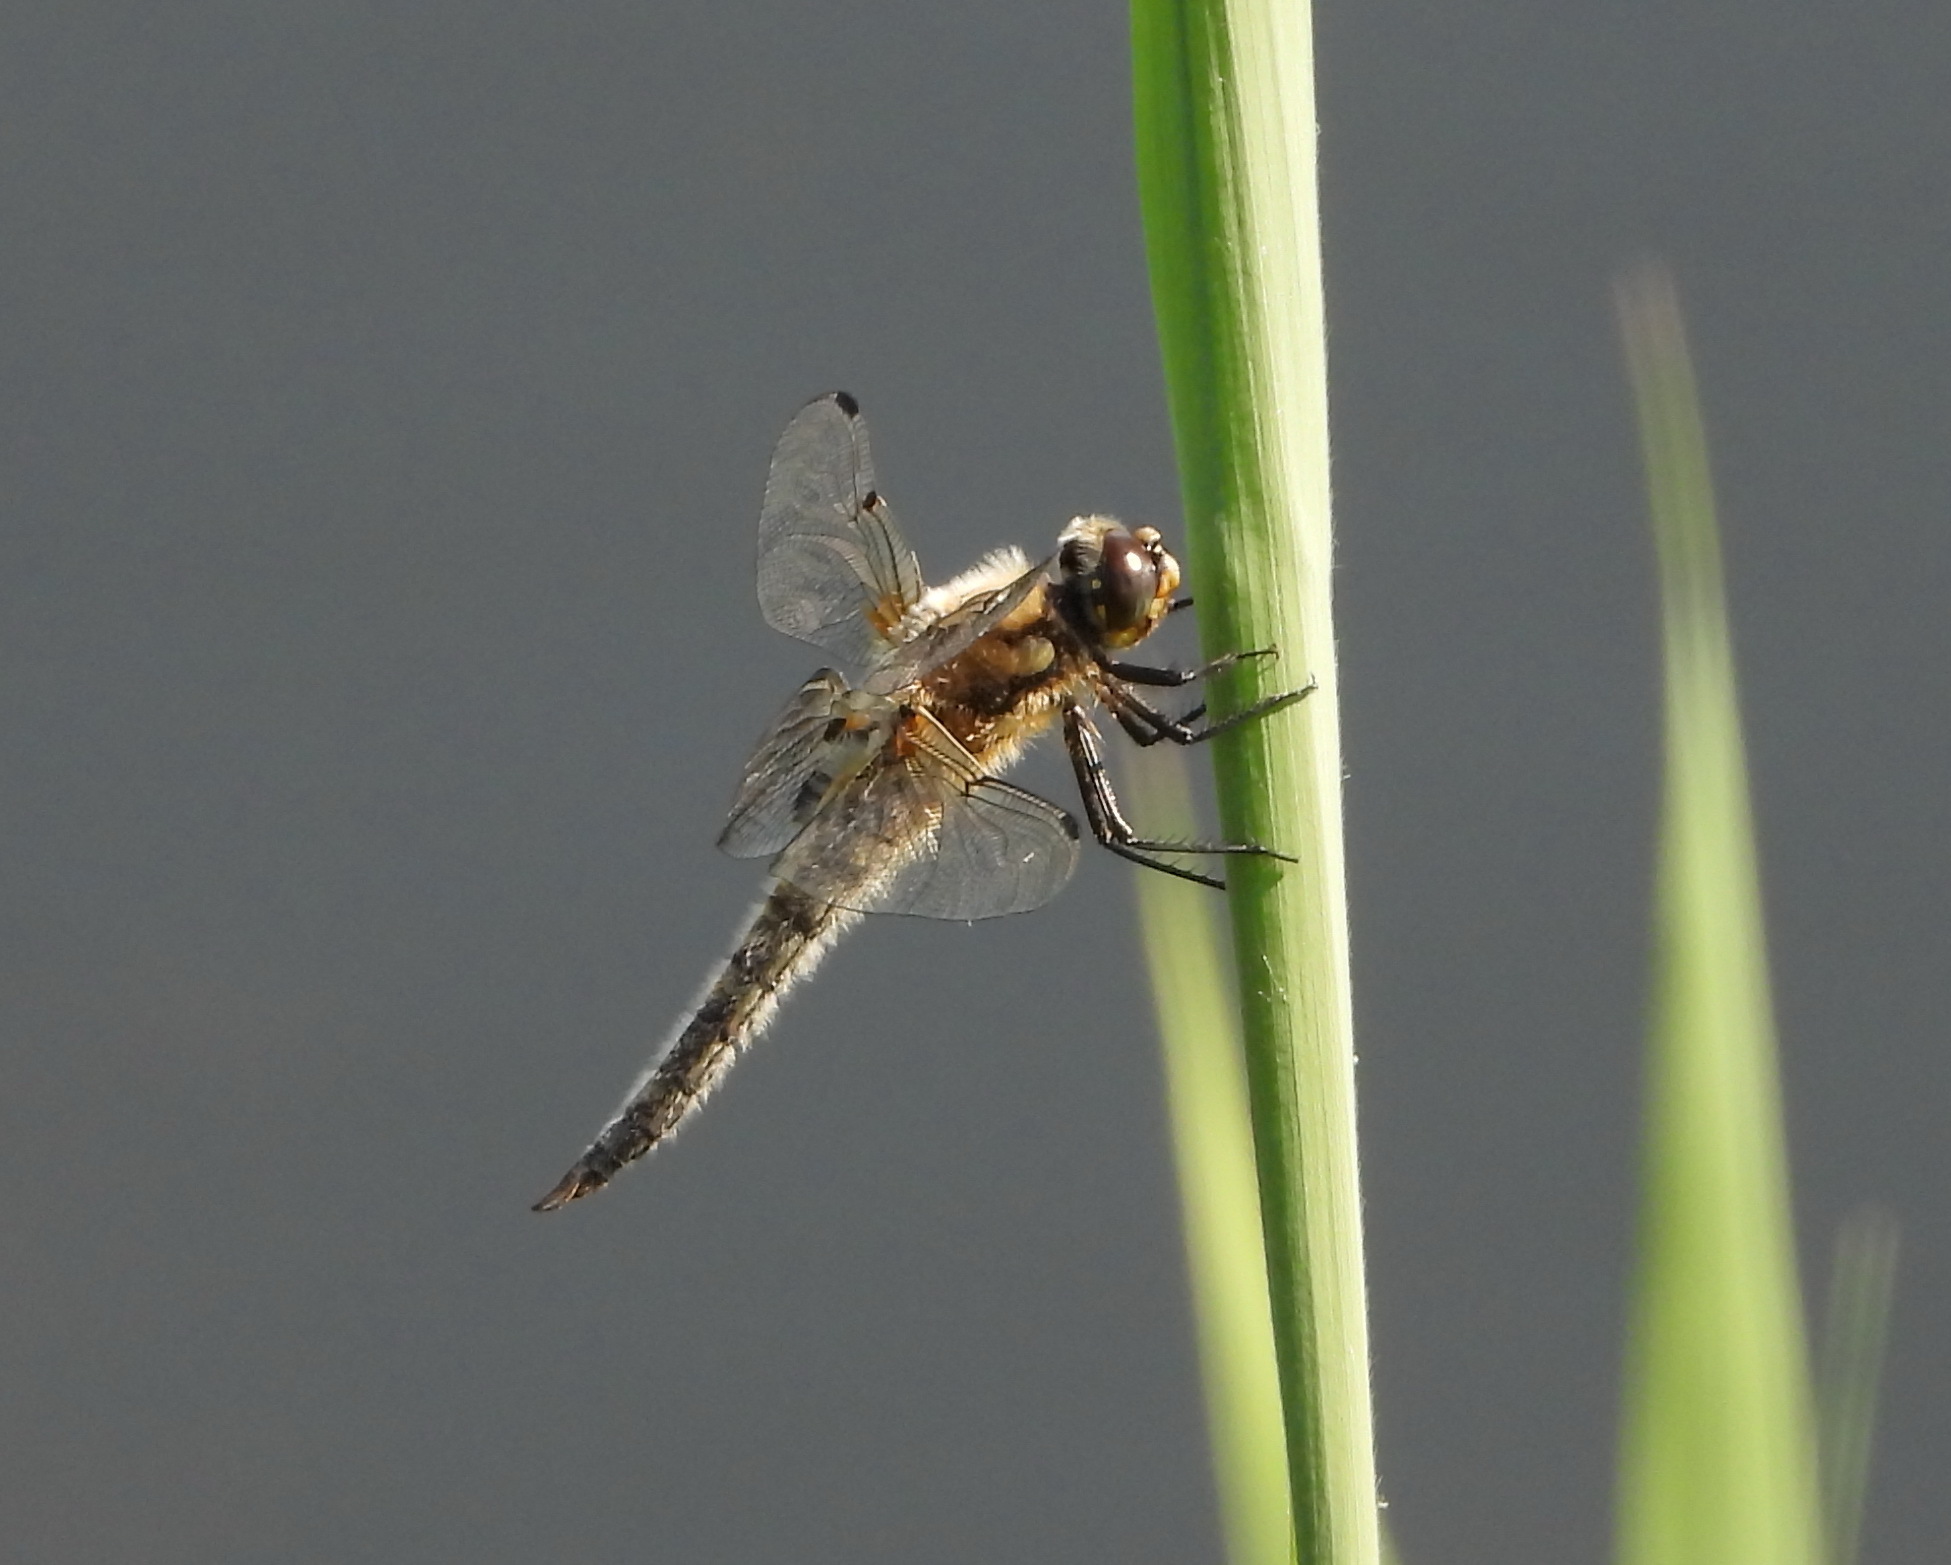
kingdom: Animalia
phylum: Arthropoda
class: Insecta
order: Odonata
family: Libellulidae
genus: Libellula
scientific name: Libellula quadrimaculata
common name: Four-spotted chaser
